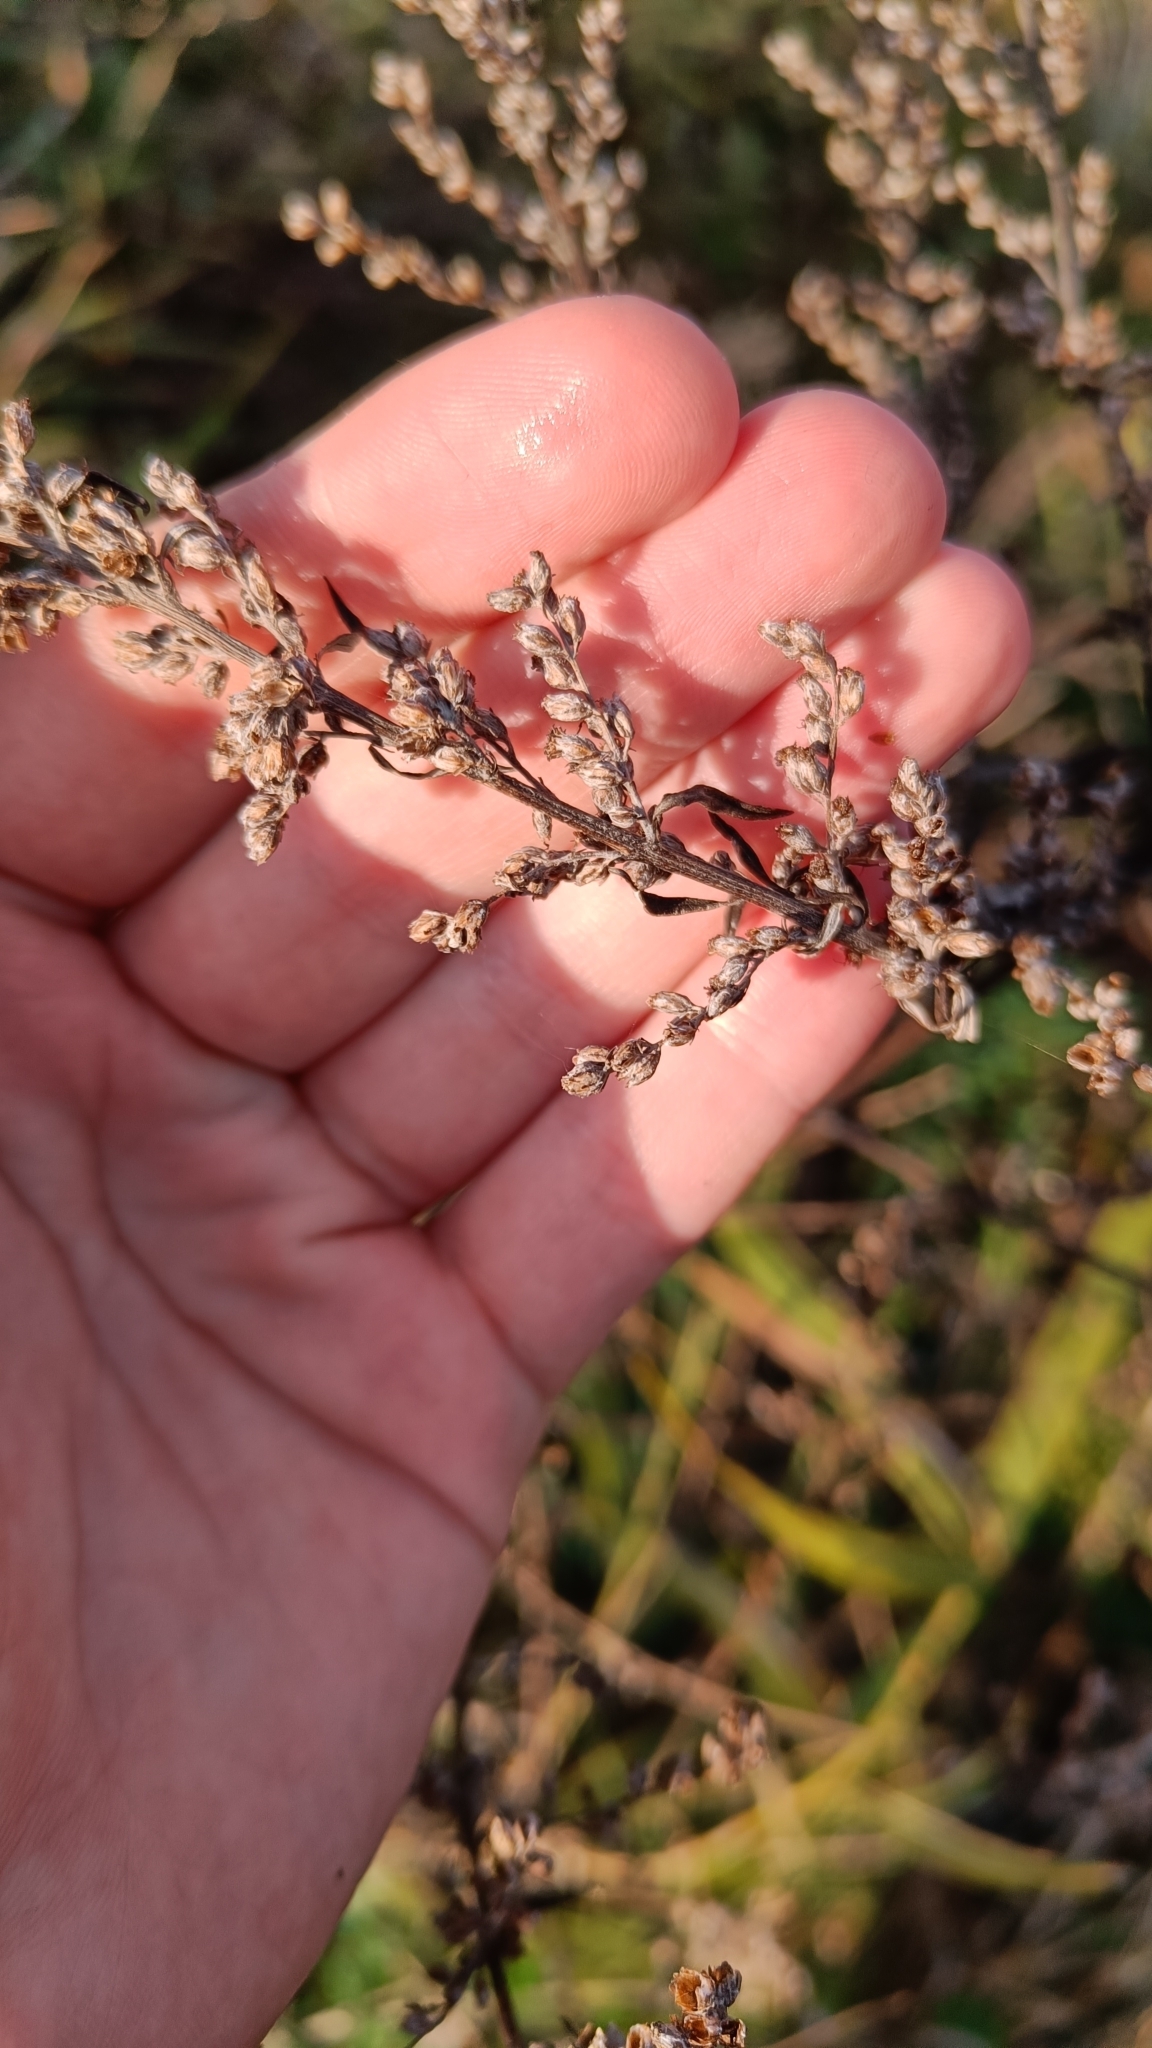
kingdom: Plantae
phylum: Tracheophyta
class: Magnoliopsida
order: Asterales
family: Asteraceae
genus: Artemisia
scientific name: Artemisia vulgaris
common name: Mugwort
